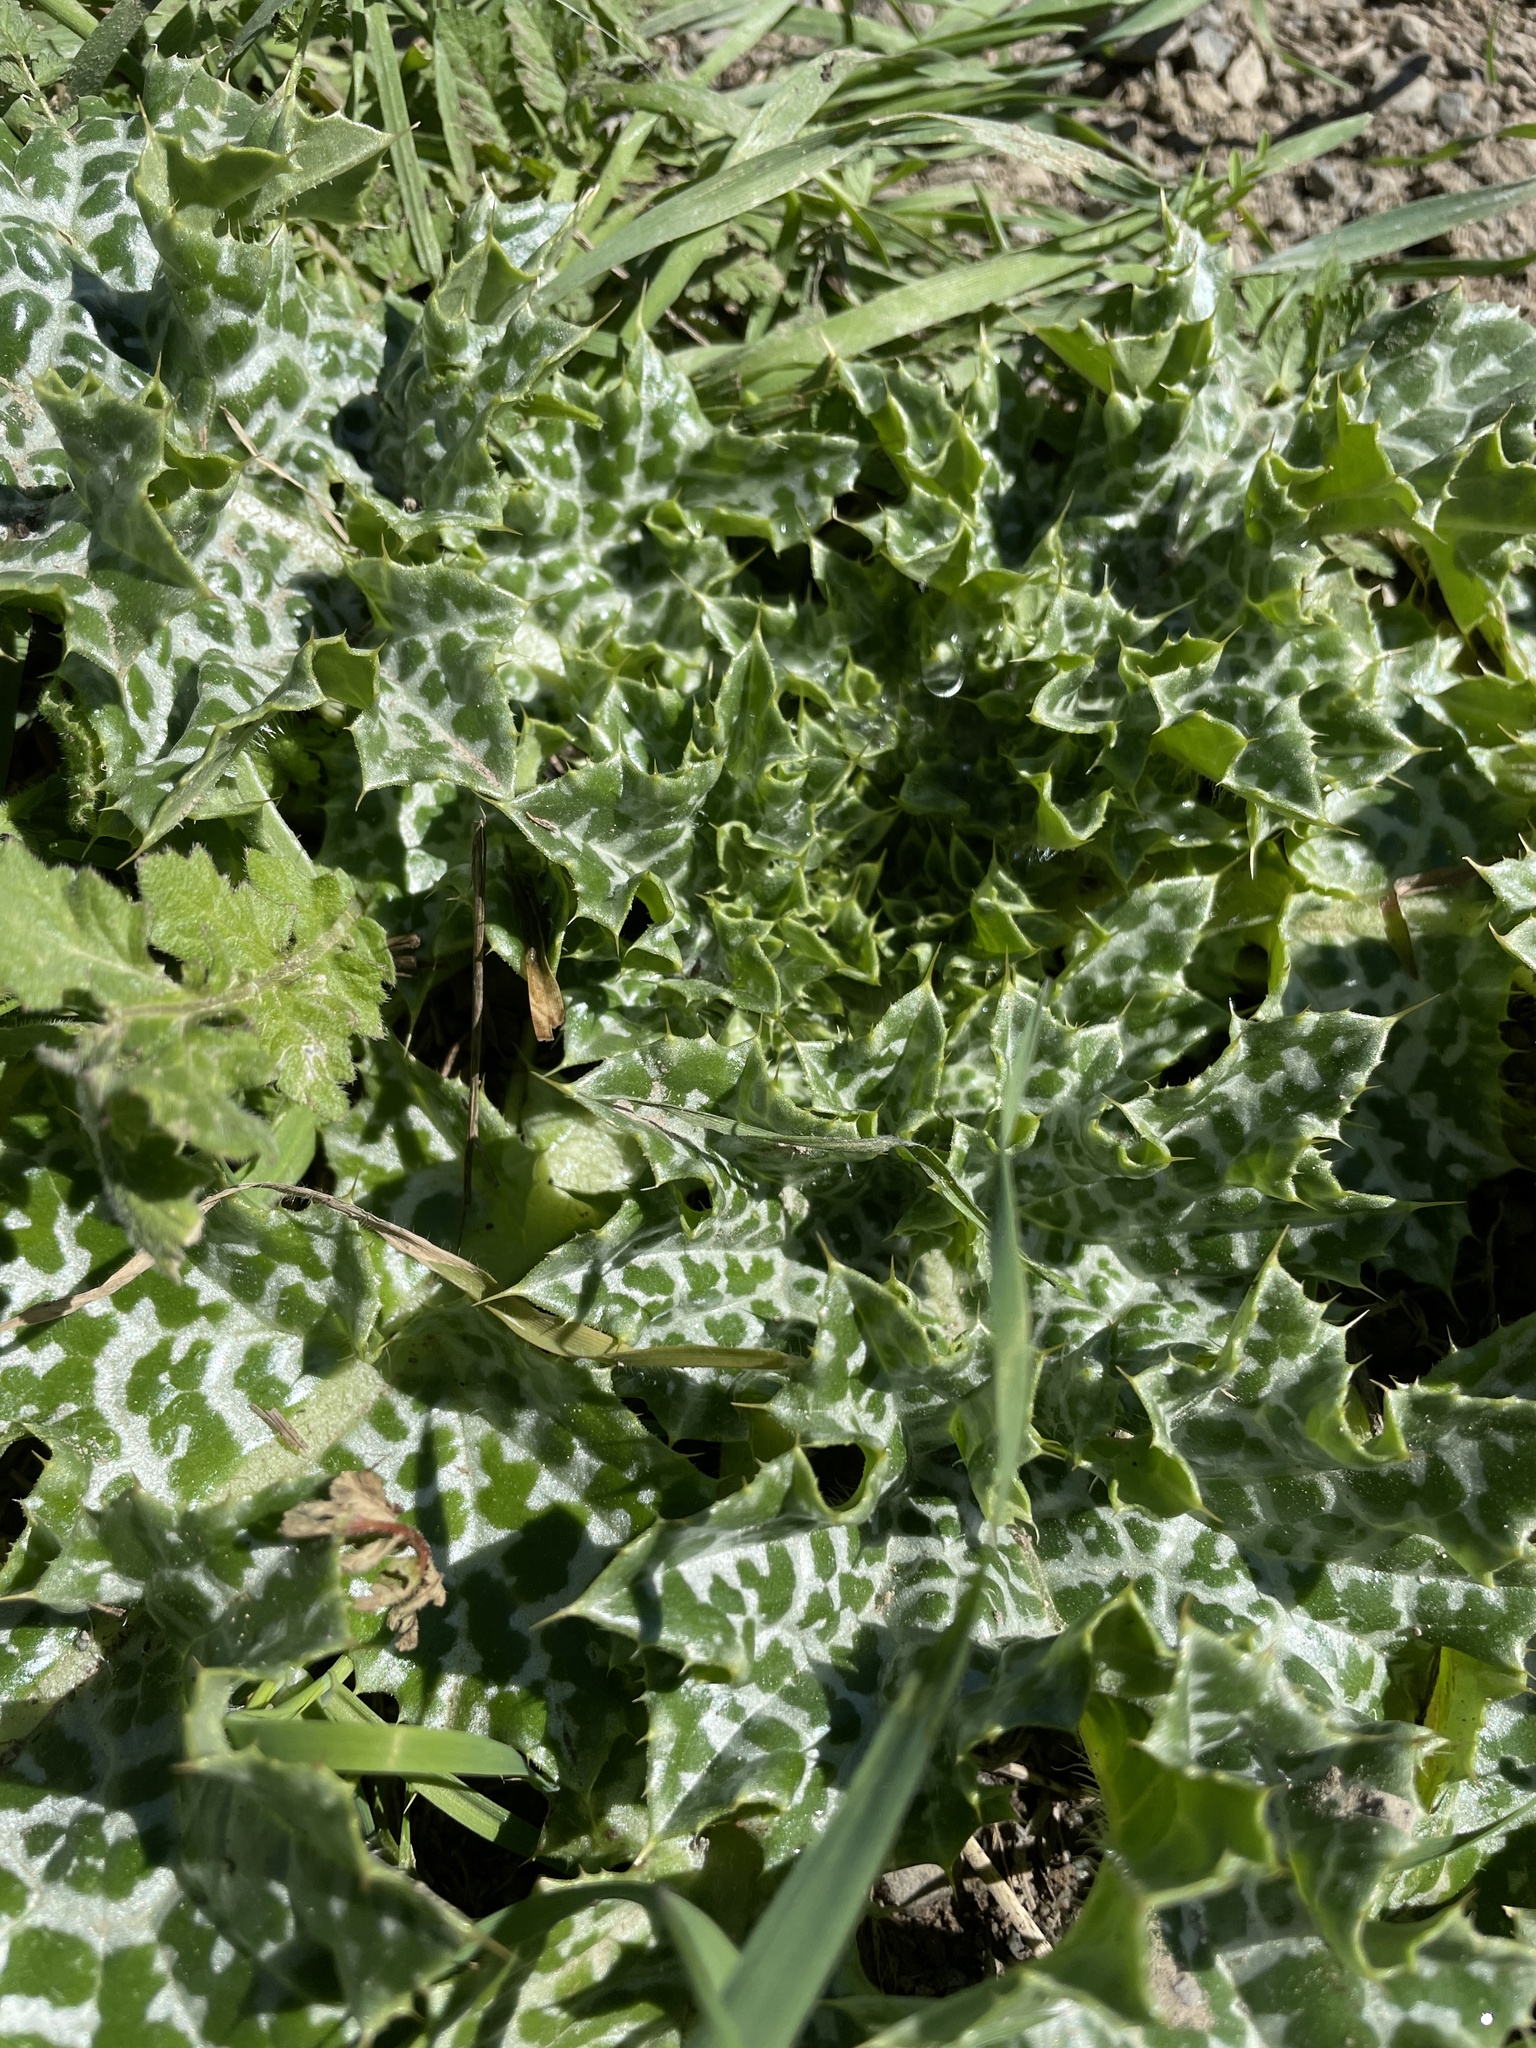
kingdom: Plantae
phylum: Tracheophyta
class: Magnoliopsida
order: Asterales
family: Asteraceae
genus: Silybum
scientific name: Silybum marianum
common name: Milk thistle
